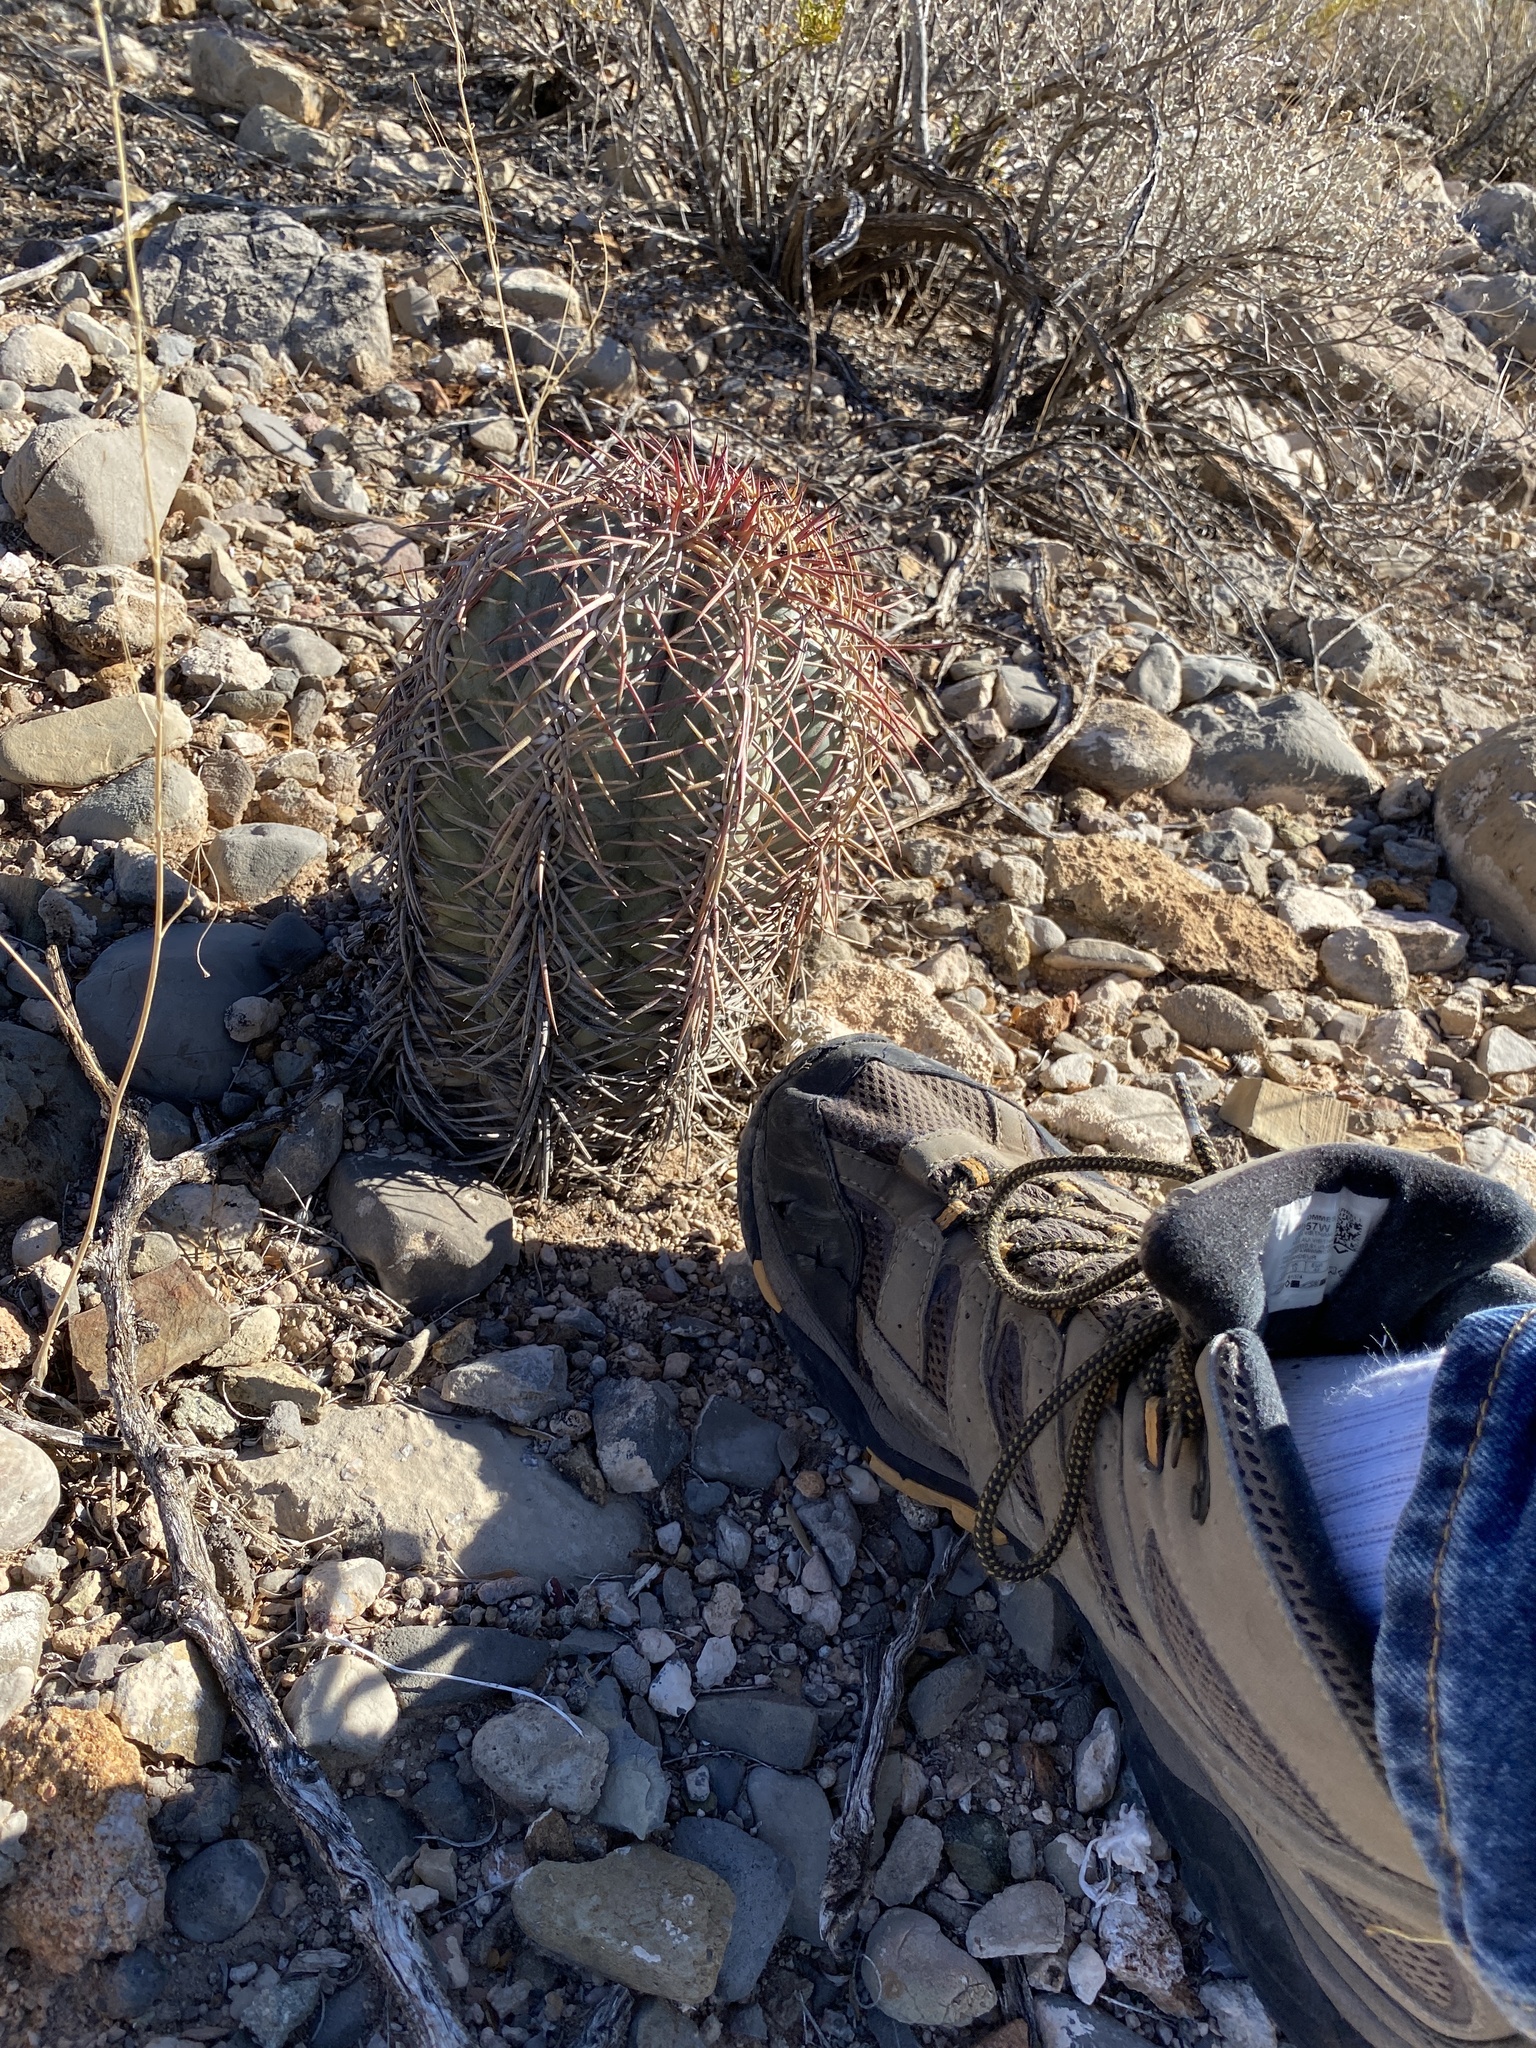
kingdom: Plantae
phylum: Tracheophyta
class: Magnoliopsida
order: Caryophyllales
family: Cactaceae
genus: Echinocactus
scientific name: Echinocactus horizonthalonius
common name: Devilshead
